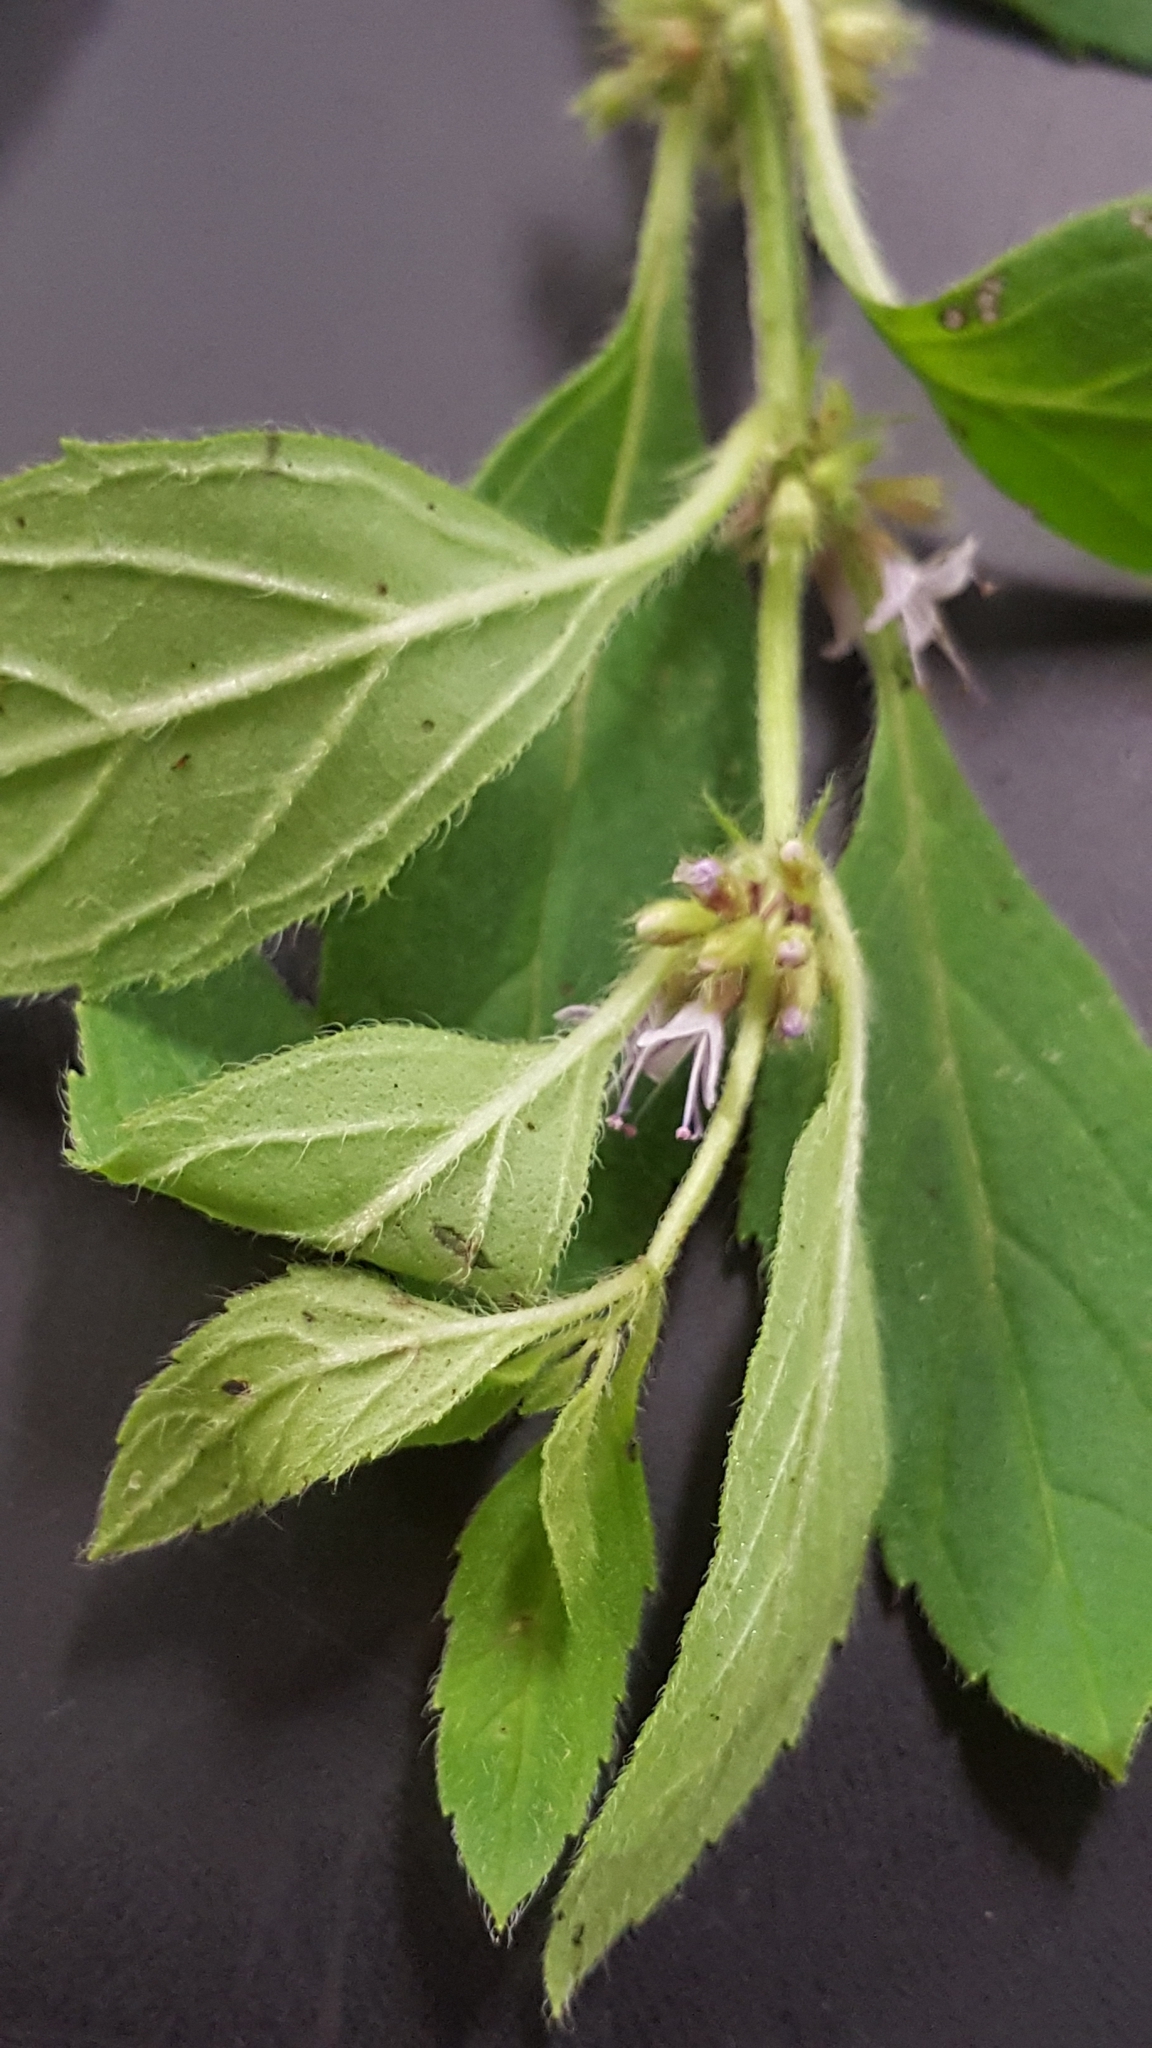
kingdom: Plantae
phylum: Tracheophyta
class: Magnoliopsida
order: Lamiales
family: Lamiaceae
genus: Mentha
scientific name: Mentha canadensis
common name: American corn mint
